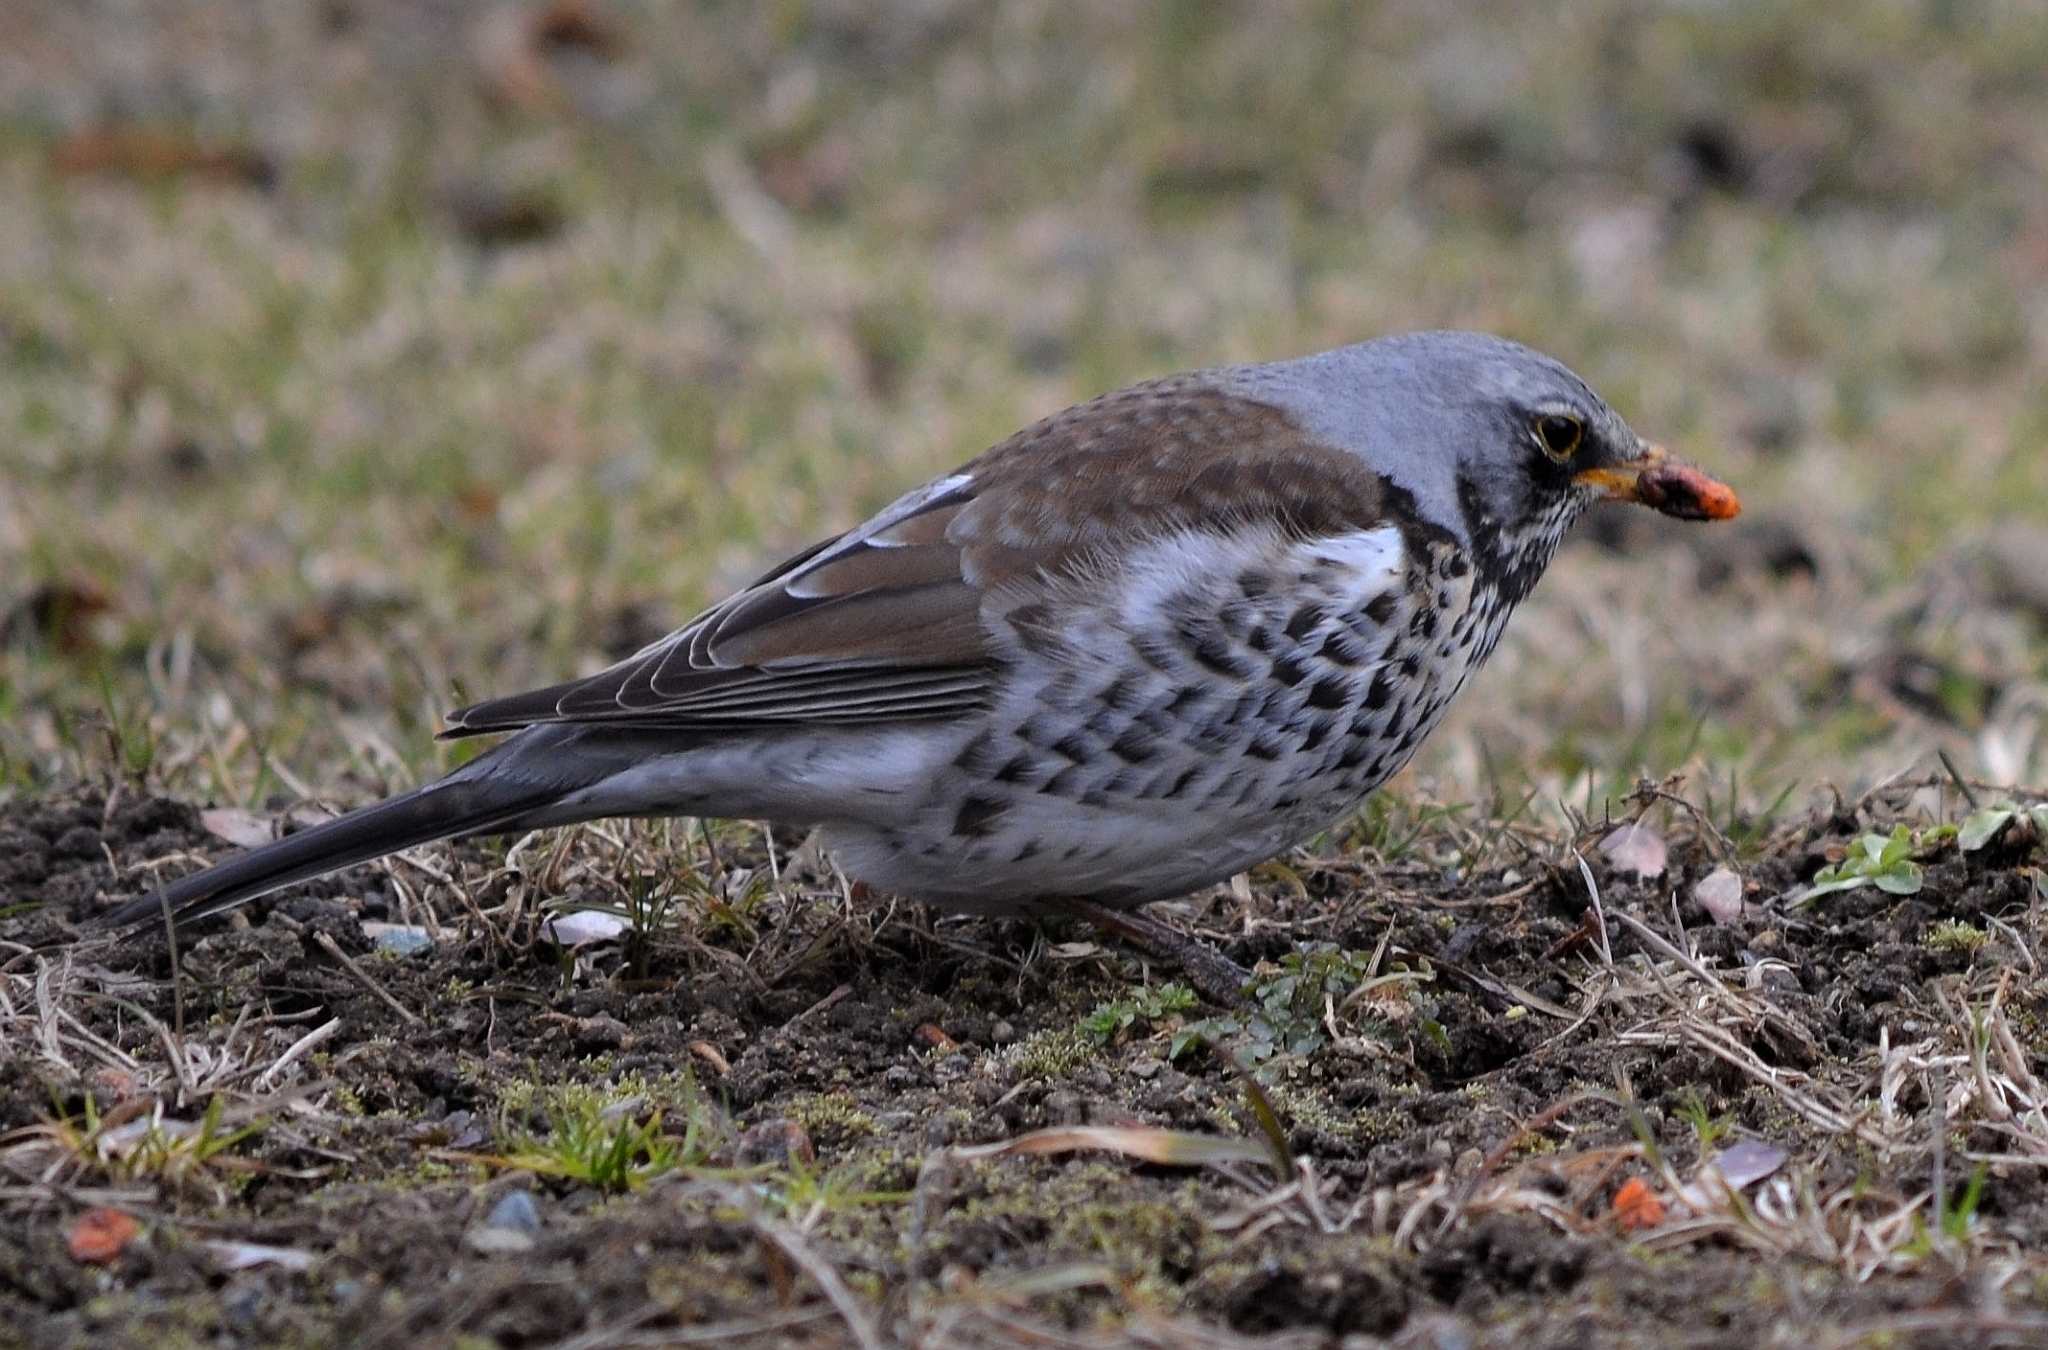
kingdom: Animalia
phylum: Chordata
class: Aves
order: Passeriformes
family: Turdidae
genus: Turdus
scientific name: Turdus pilaris
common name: Fieldfare
